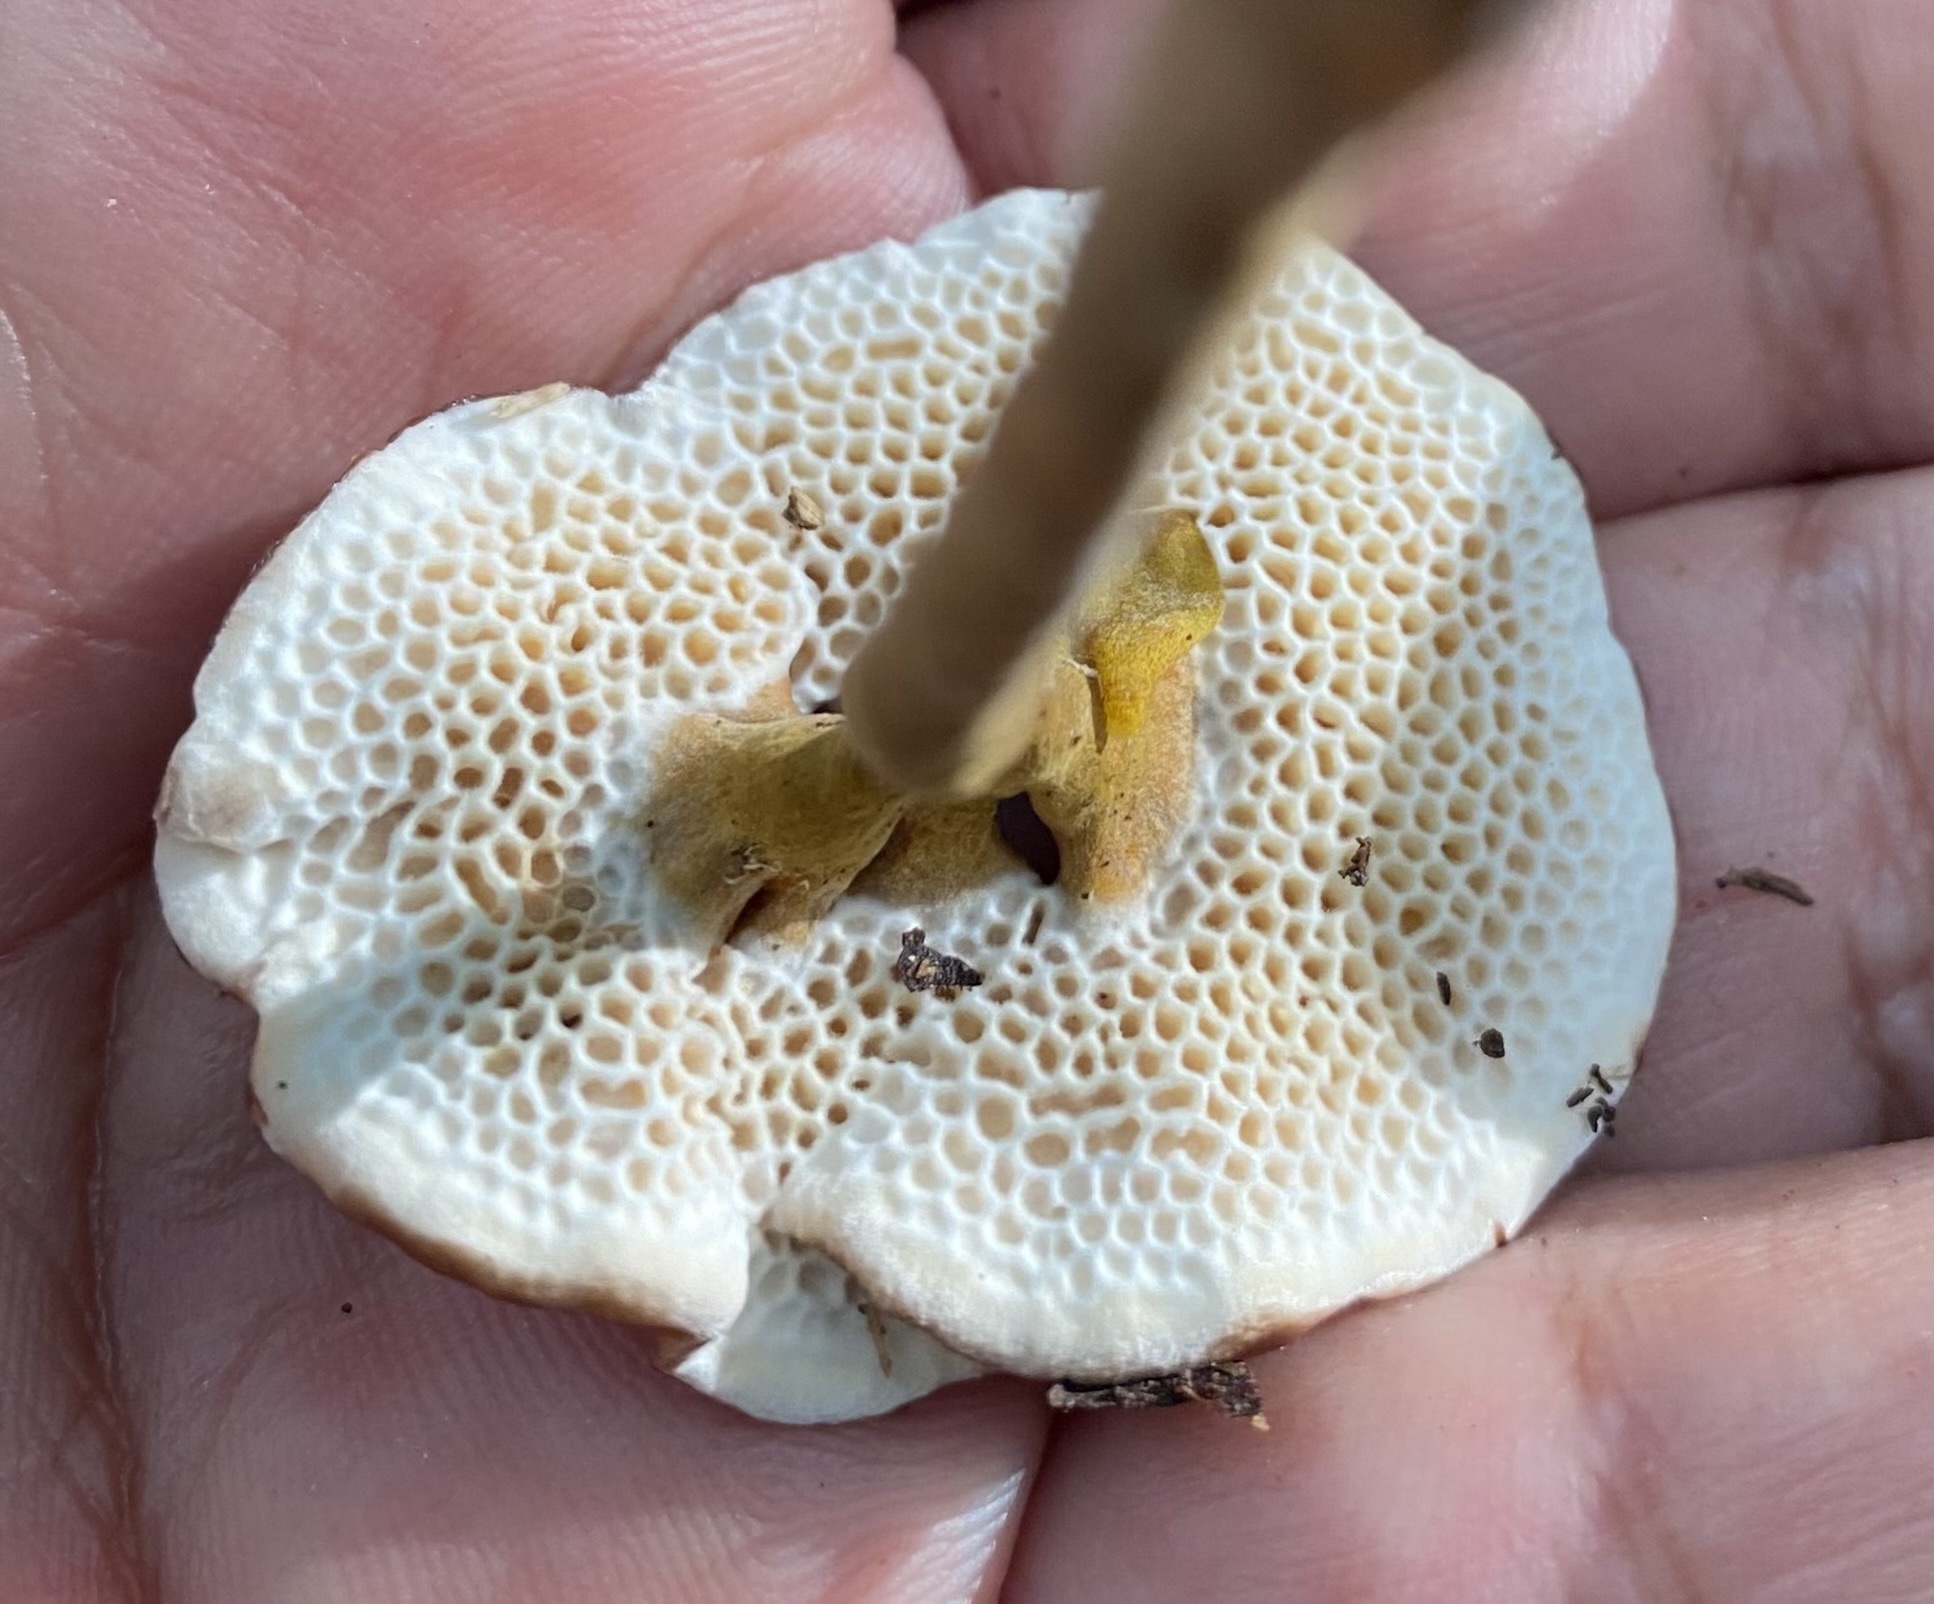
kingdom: Fungi
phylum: Basidiomycota
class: Agaricomycetes
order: Polyporales
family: Polyporaceae
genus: Amauroderma
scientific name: Amauroderma schomburgkii
